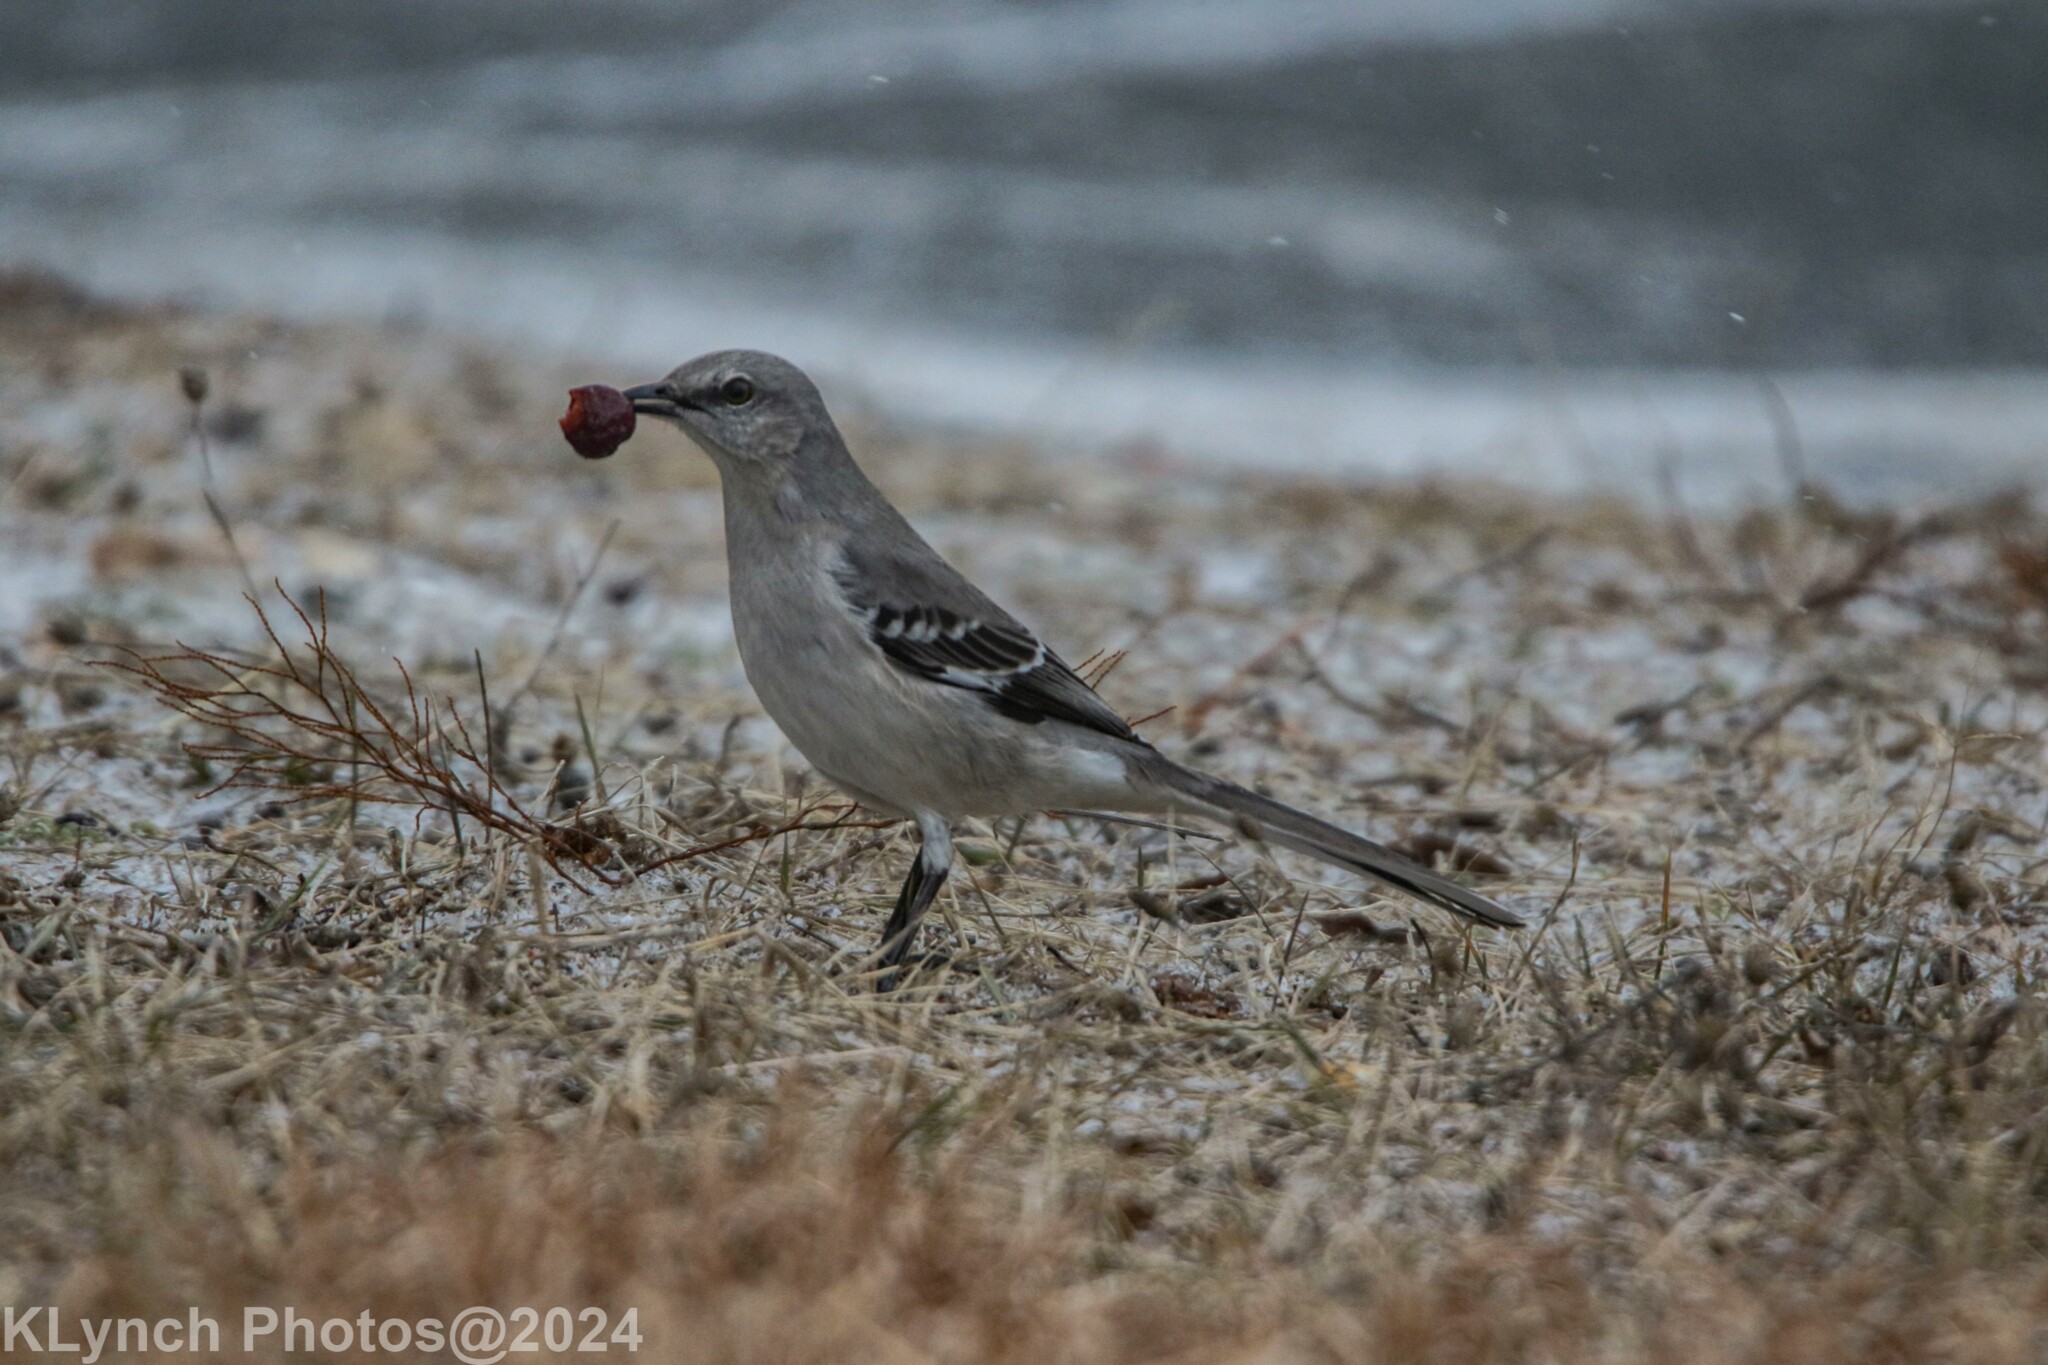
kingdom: Animalia
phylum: Chordata
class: Aves
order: Passeriformes
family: Mimidae
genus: Mimus
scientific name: Mimus polyglottos
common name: Northern mockingbird
